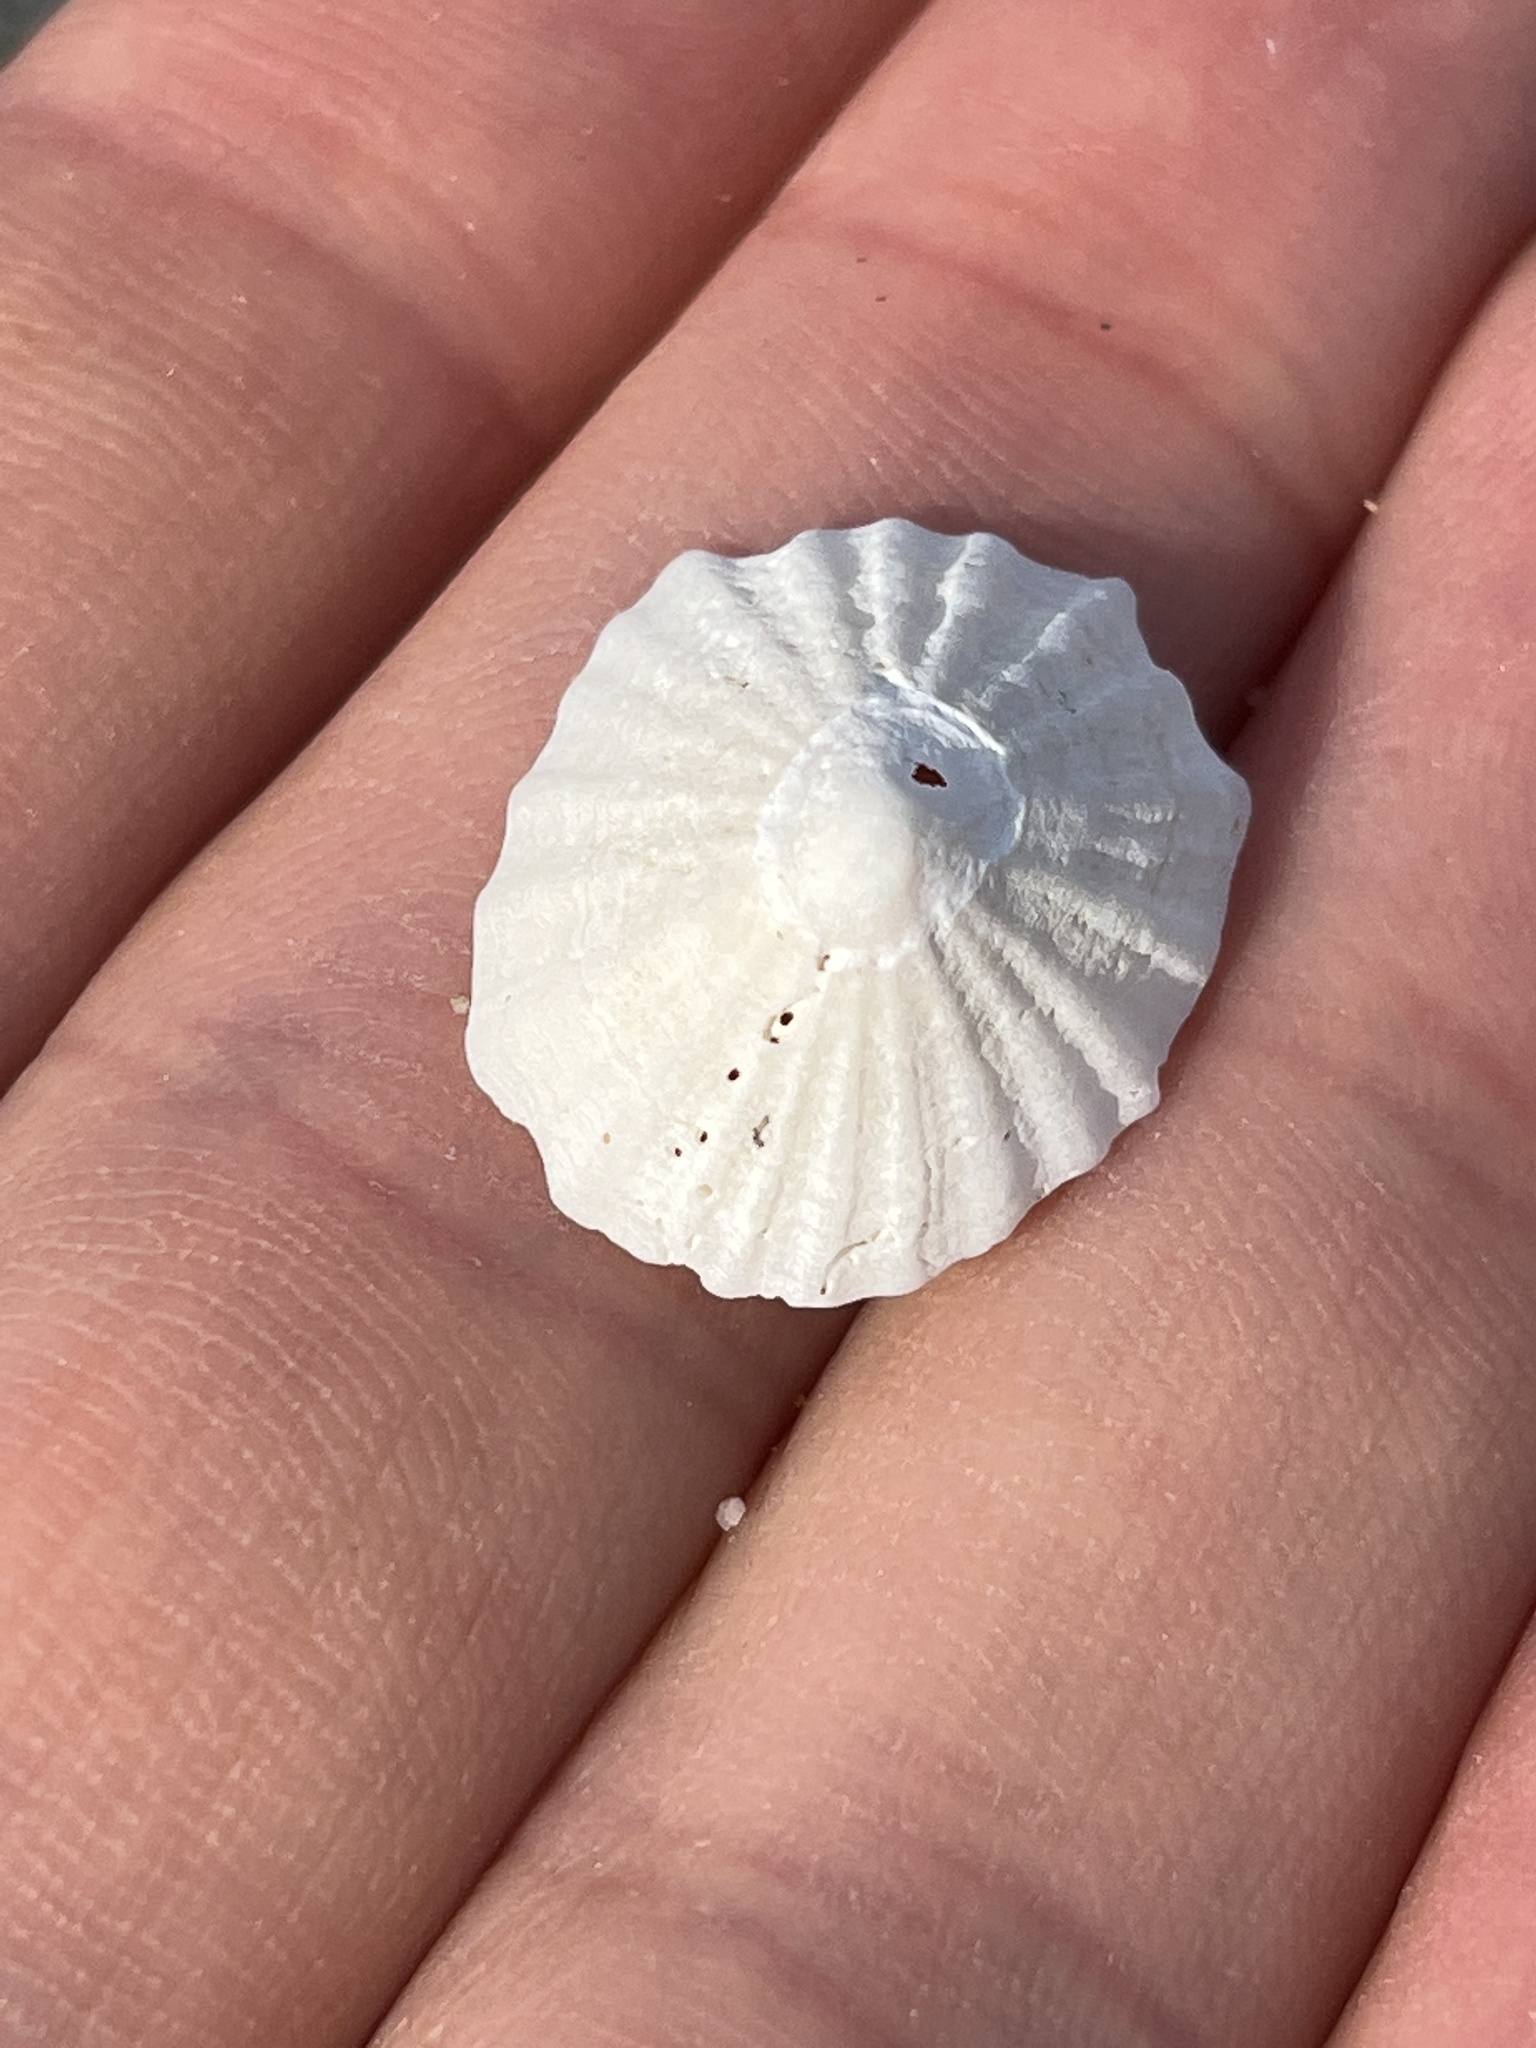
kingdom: Animalia
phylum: Mollusca
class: Gastropoda
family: Lottiidae
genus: Niveotectura
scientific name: Niveotectura pallida
